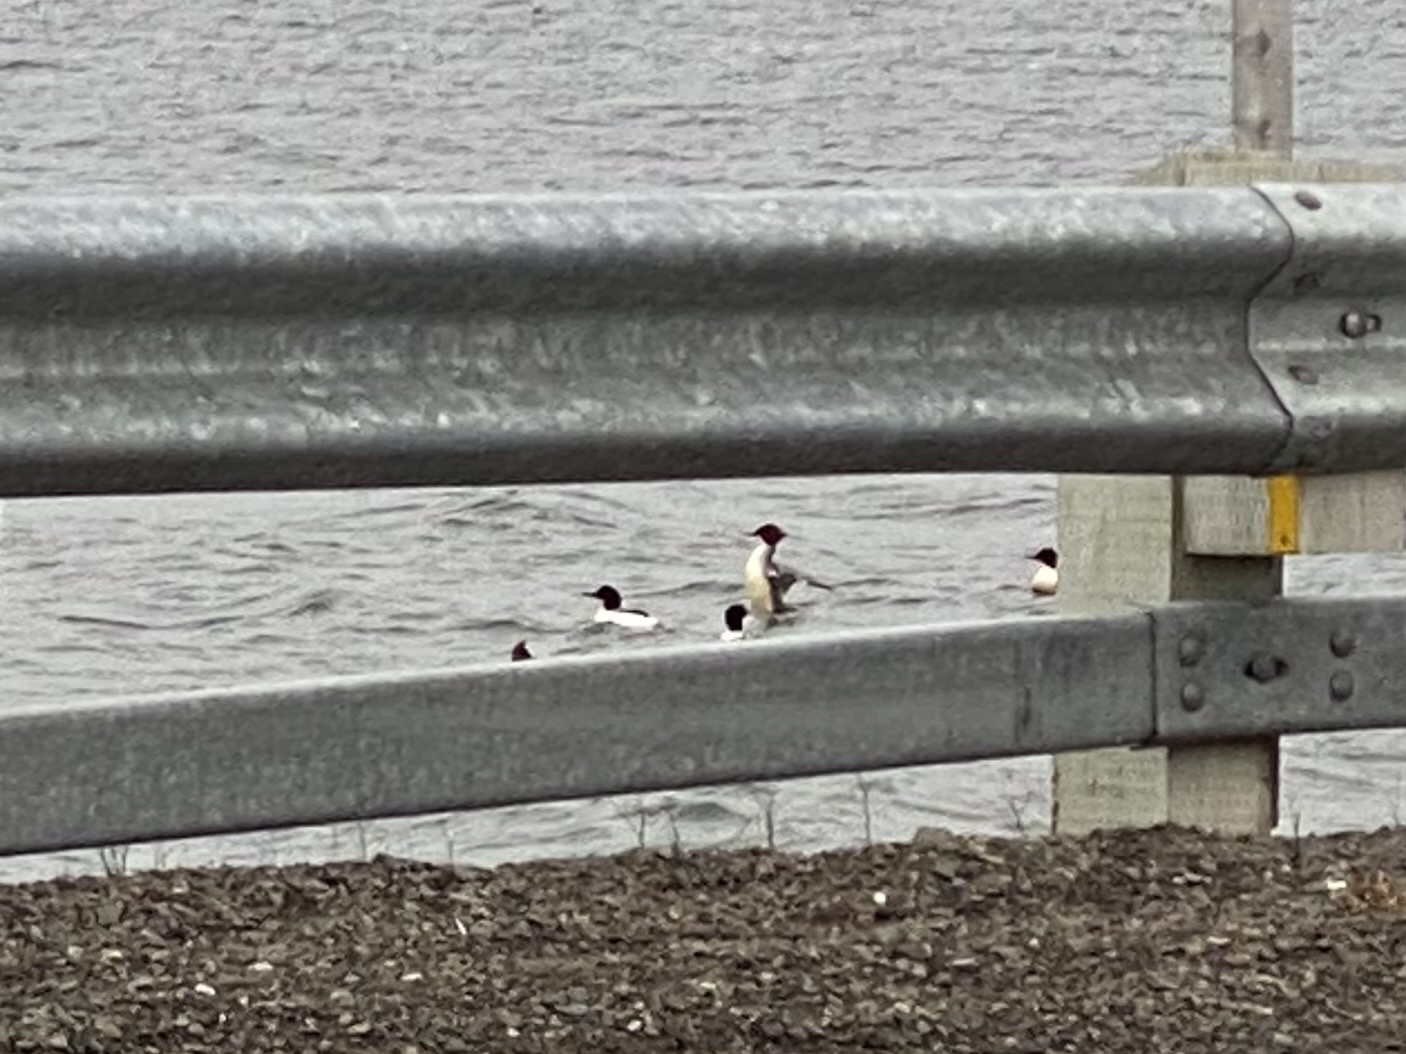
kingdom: Animalia
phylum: Chordata
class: Aves
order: Anseriformes
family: Anatidae
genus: Mergus
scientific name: Mergus merganser
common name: Common merganser
